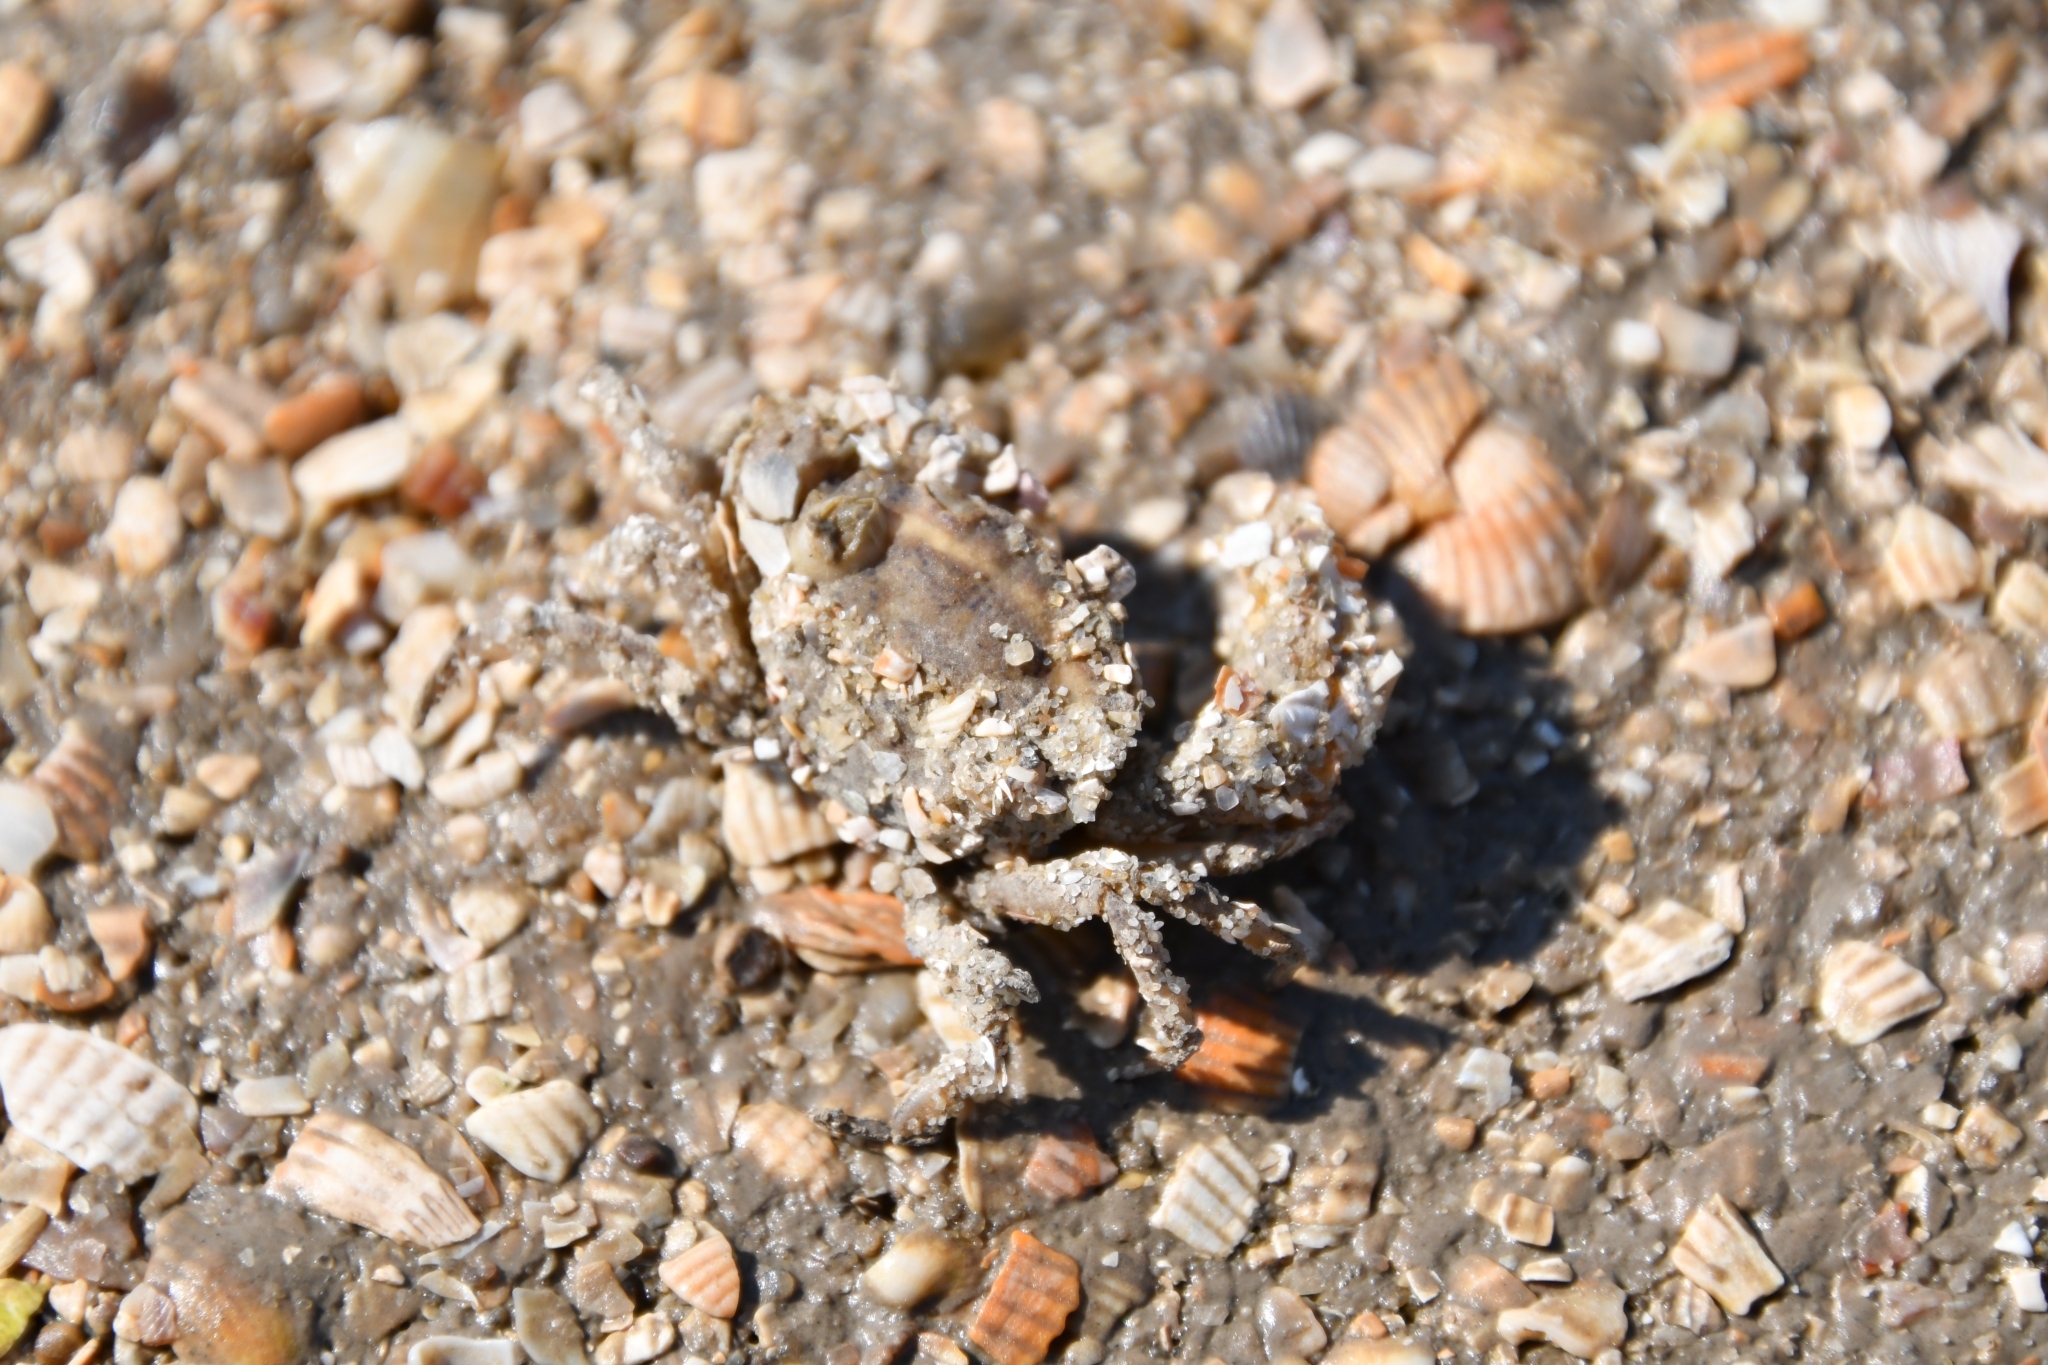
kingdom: Animalia
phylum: Arthropoda
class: Malacostraca
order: Decapoda
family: Panopeidae
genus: Rhithropanopeus
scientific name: Rhithropanopeus harrisii
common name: Dwarf crab
